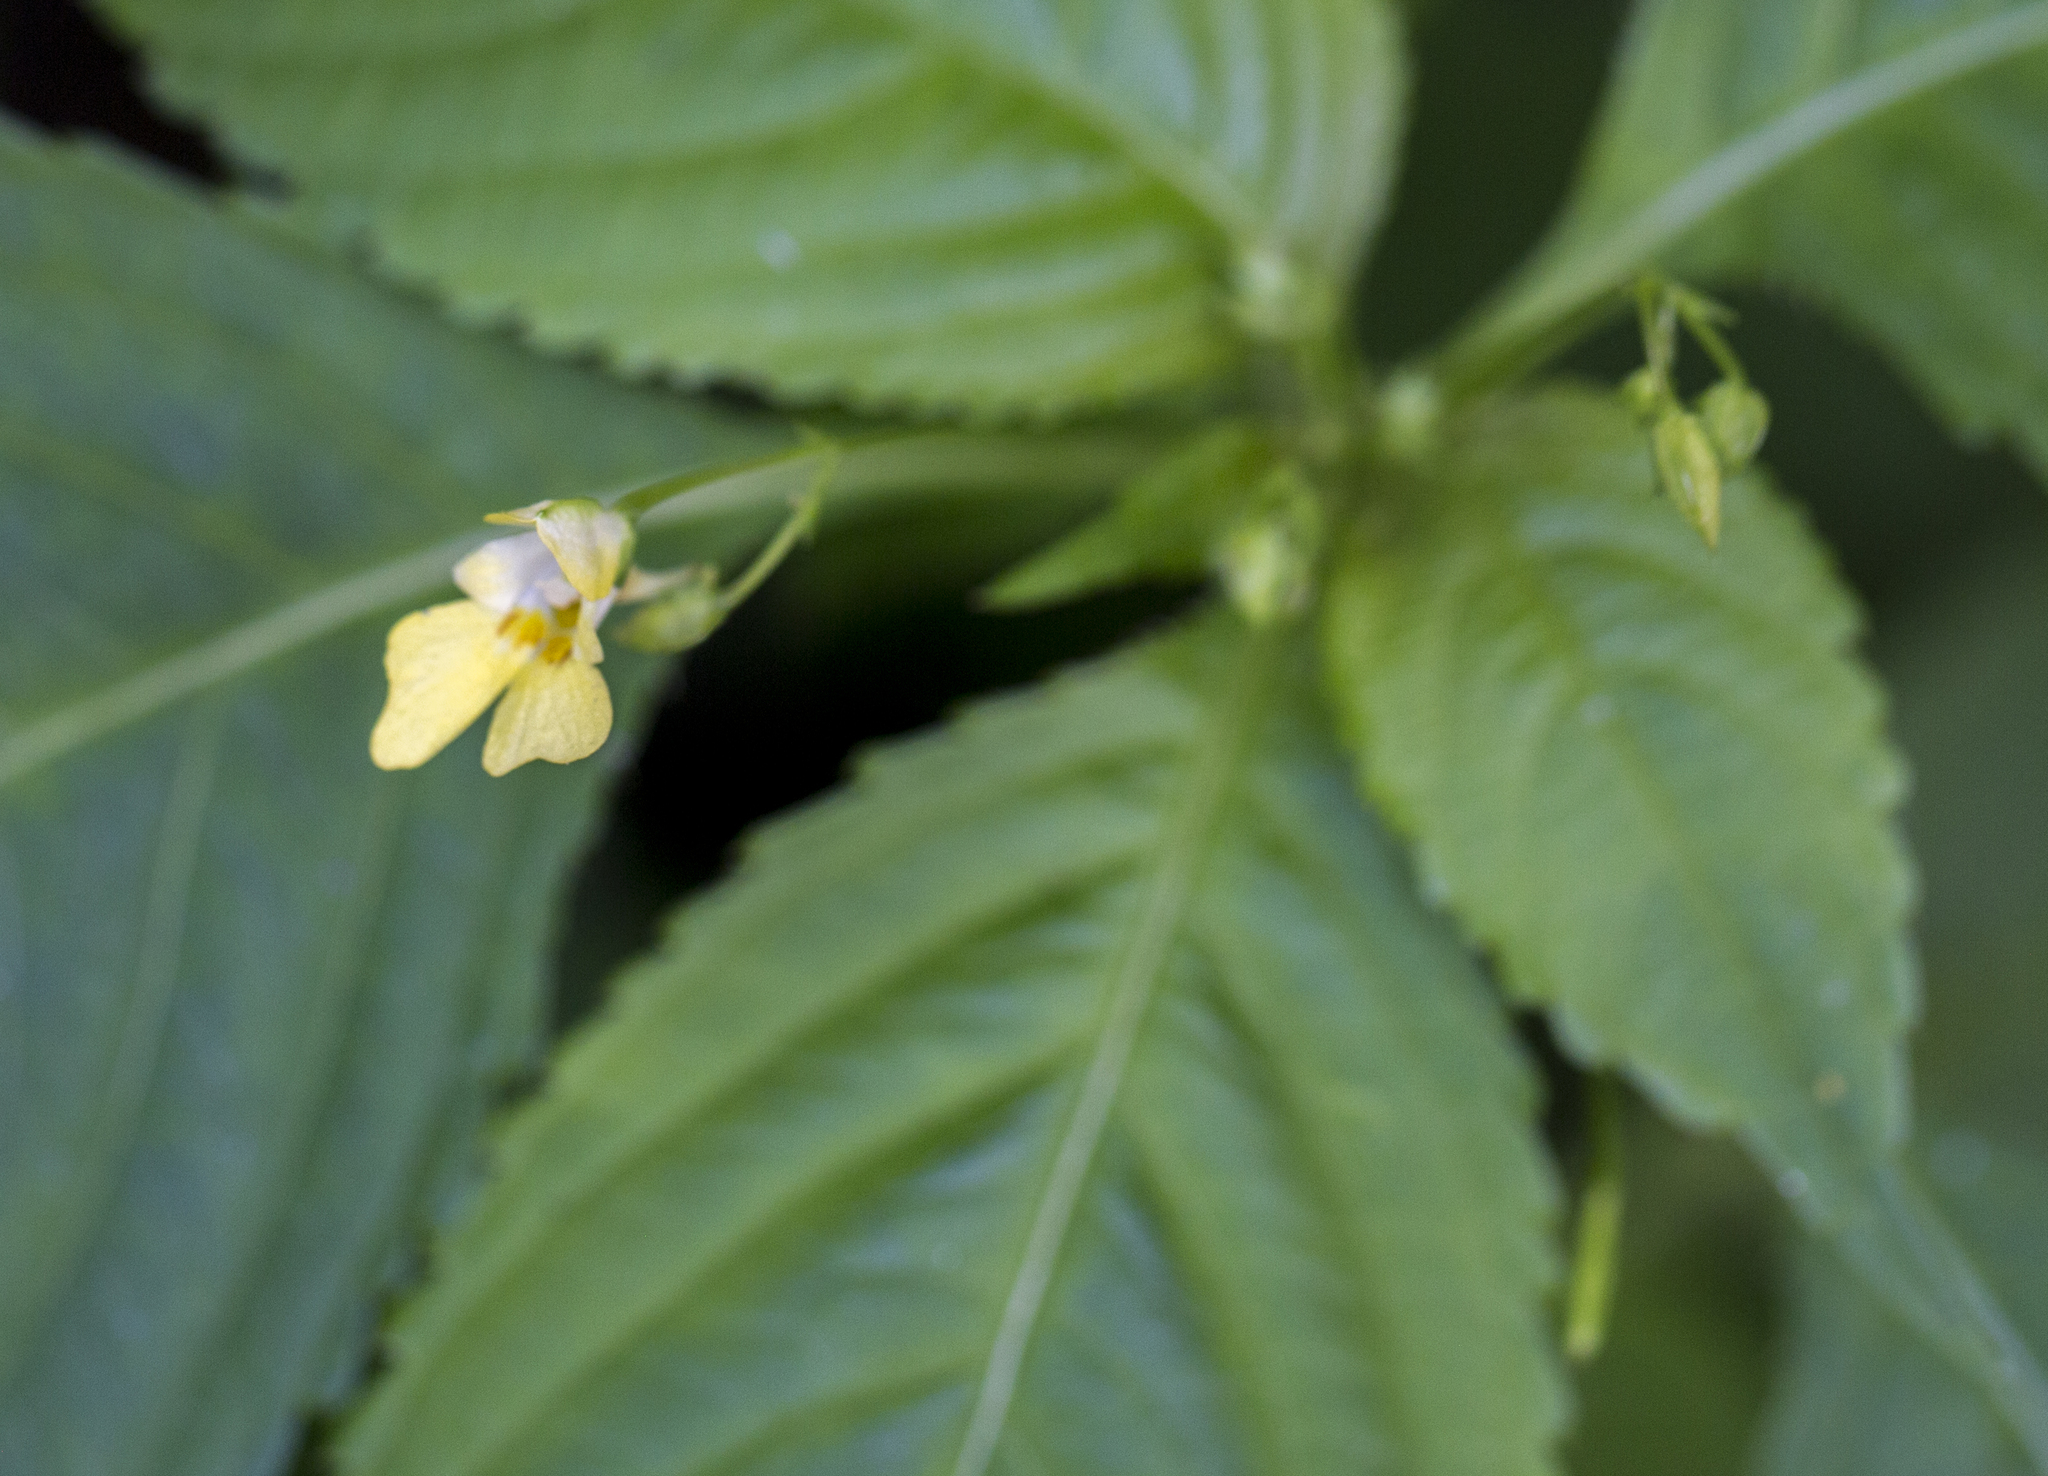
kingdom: Plantae
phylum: Tracheophyta
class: Magnoliopsida
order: Ericales
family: Balsaminaceae
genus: Impatiens
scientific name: Impatiens parviflora
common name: Small balsam
